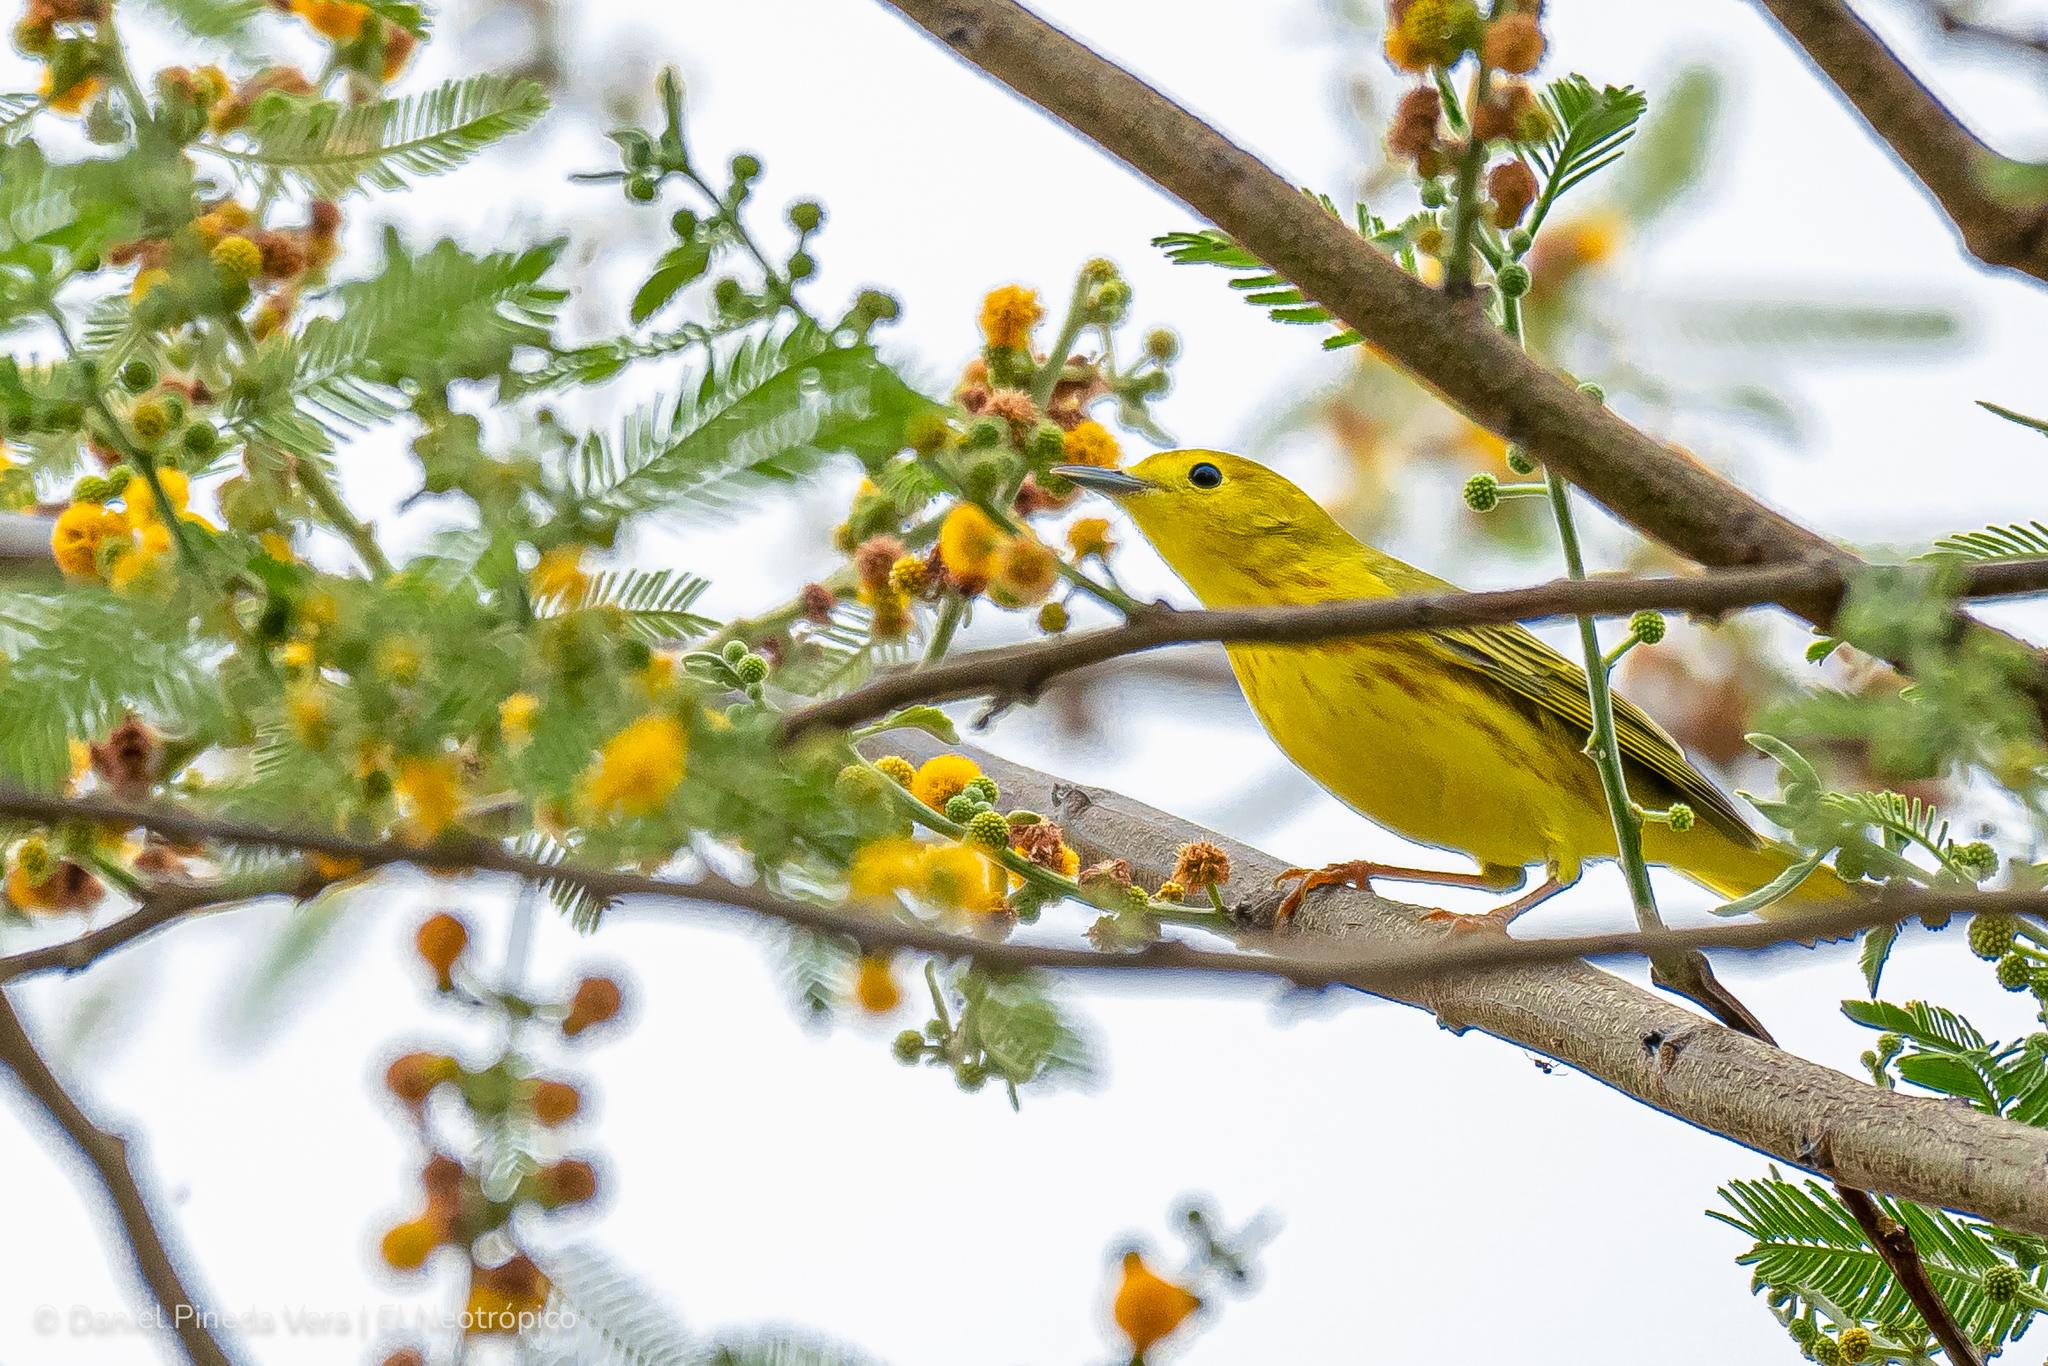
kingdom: Animalia
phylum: Chordata
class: Aves
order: Passeriformes
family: Parulidae
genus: Setophaga
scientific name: Setophaga petechia
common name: Yellow warbler
